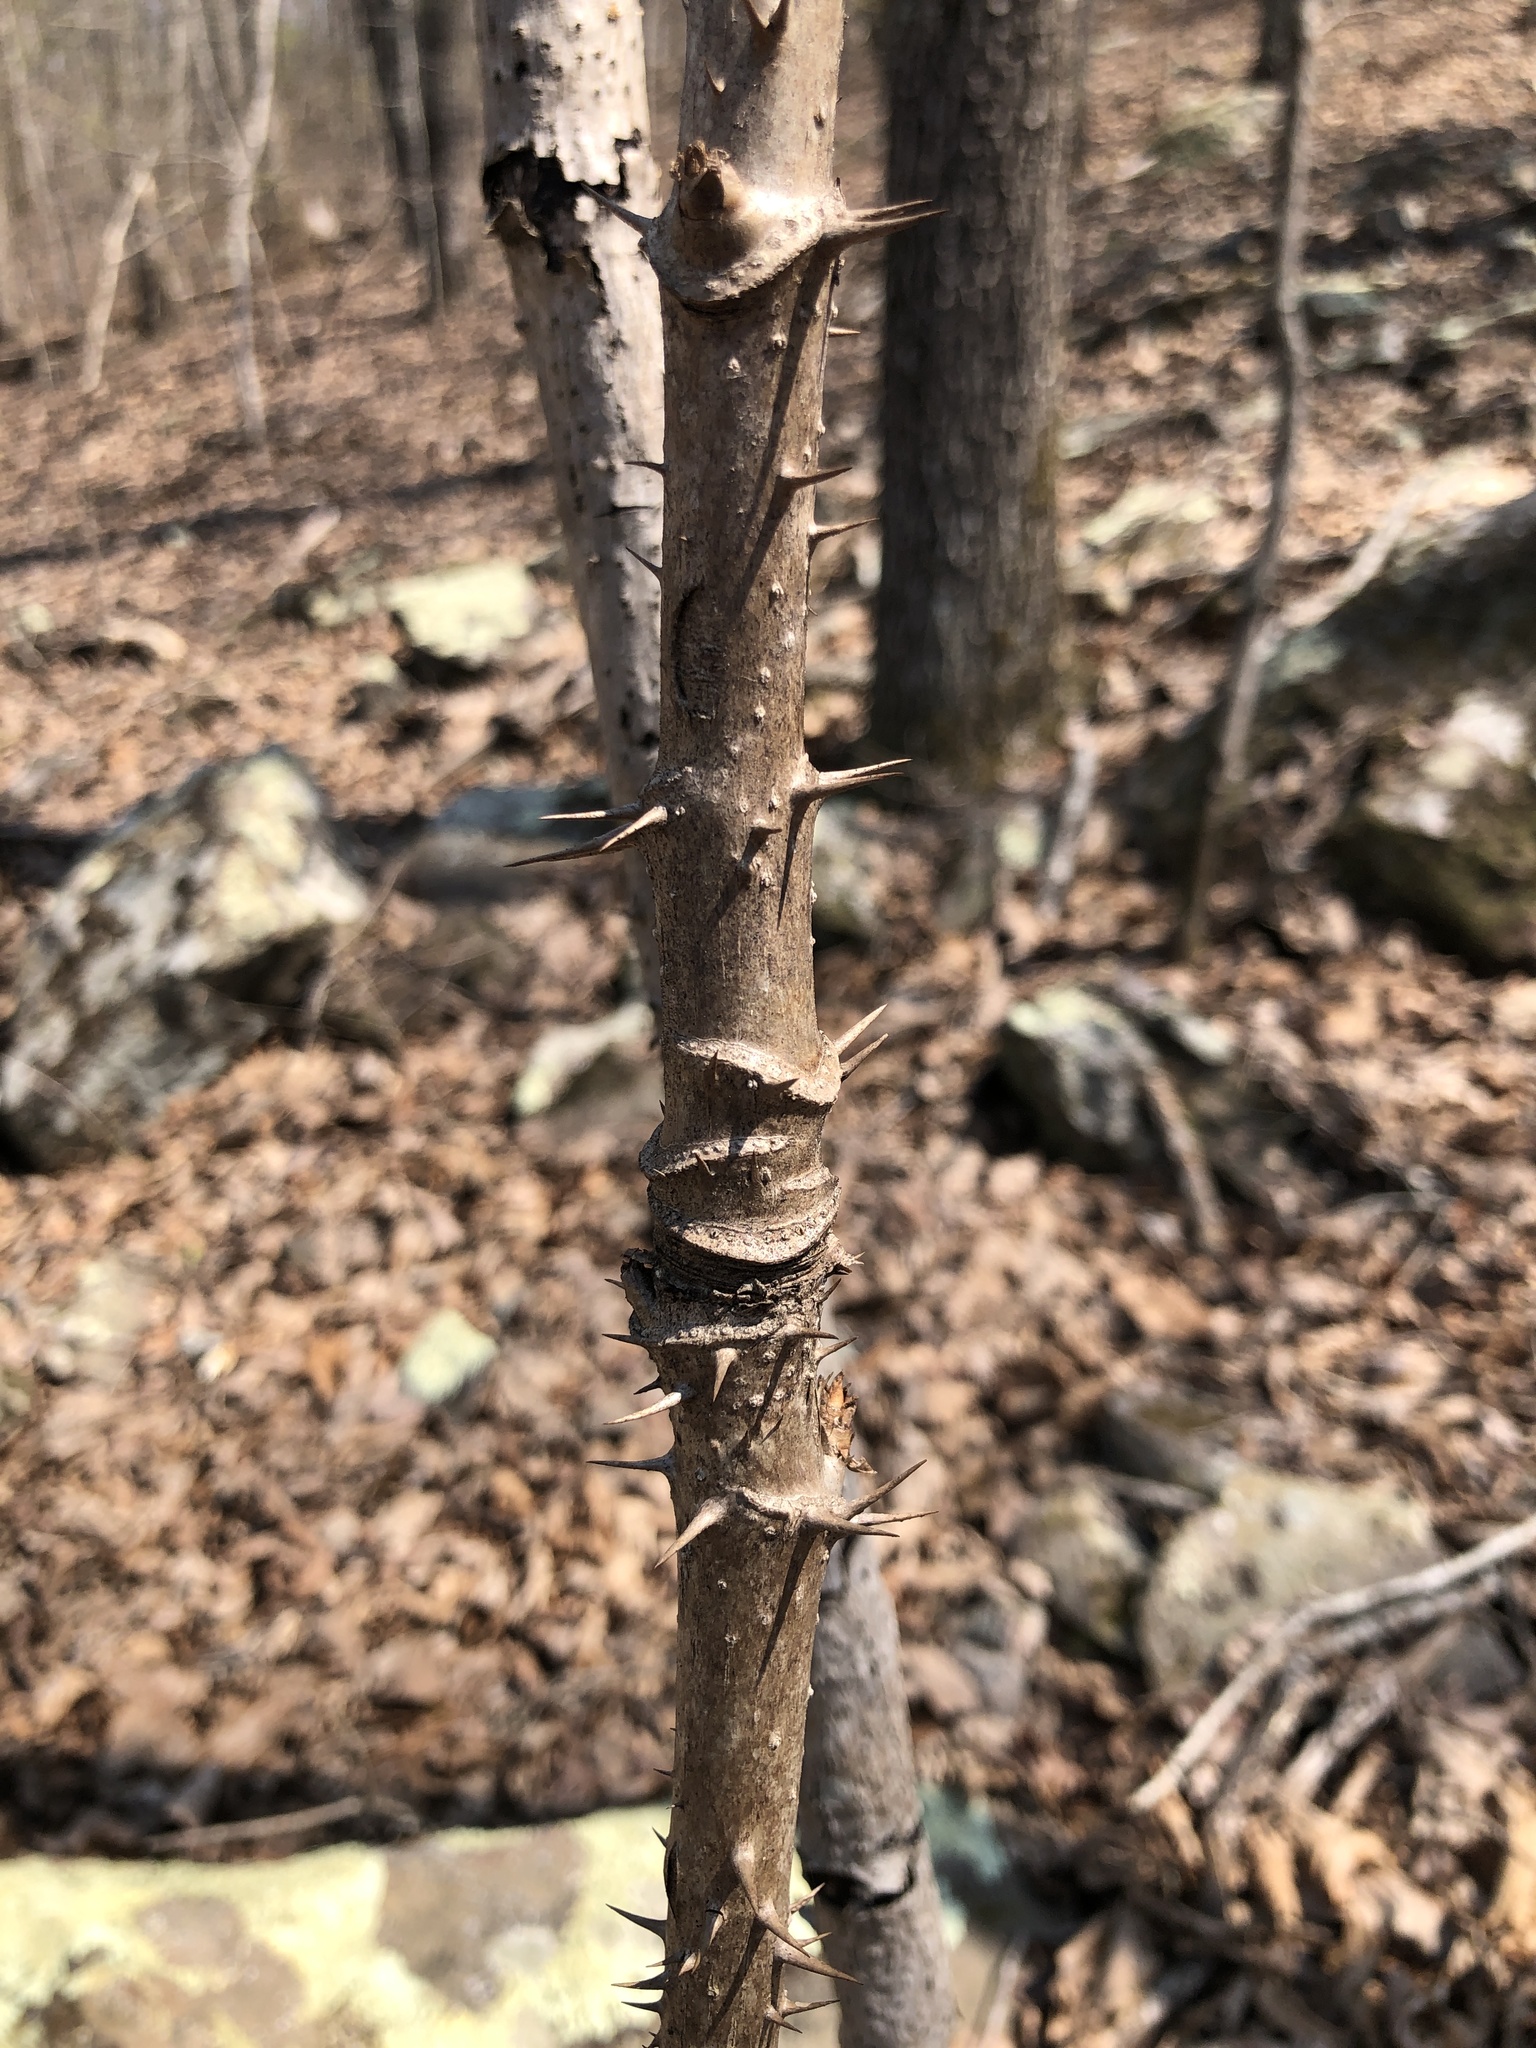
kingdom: Plantae
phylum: Tracheophyta
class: Magnoliopsida
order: Apiales
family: Araliaceae
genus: Aralia
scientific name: Aralia spinosa
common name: Hercules'-club
